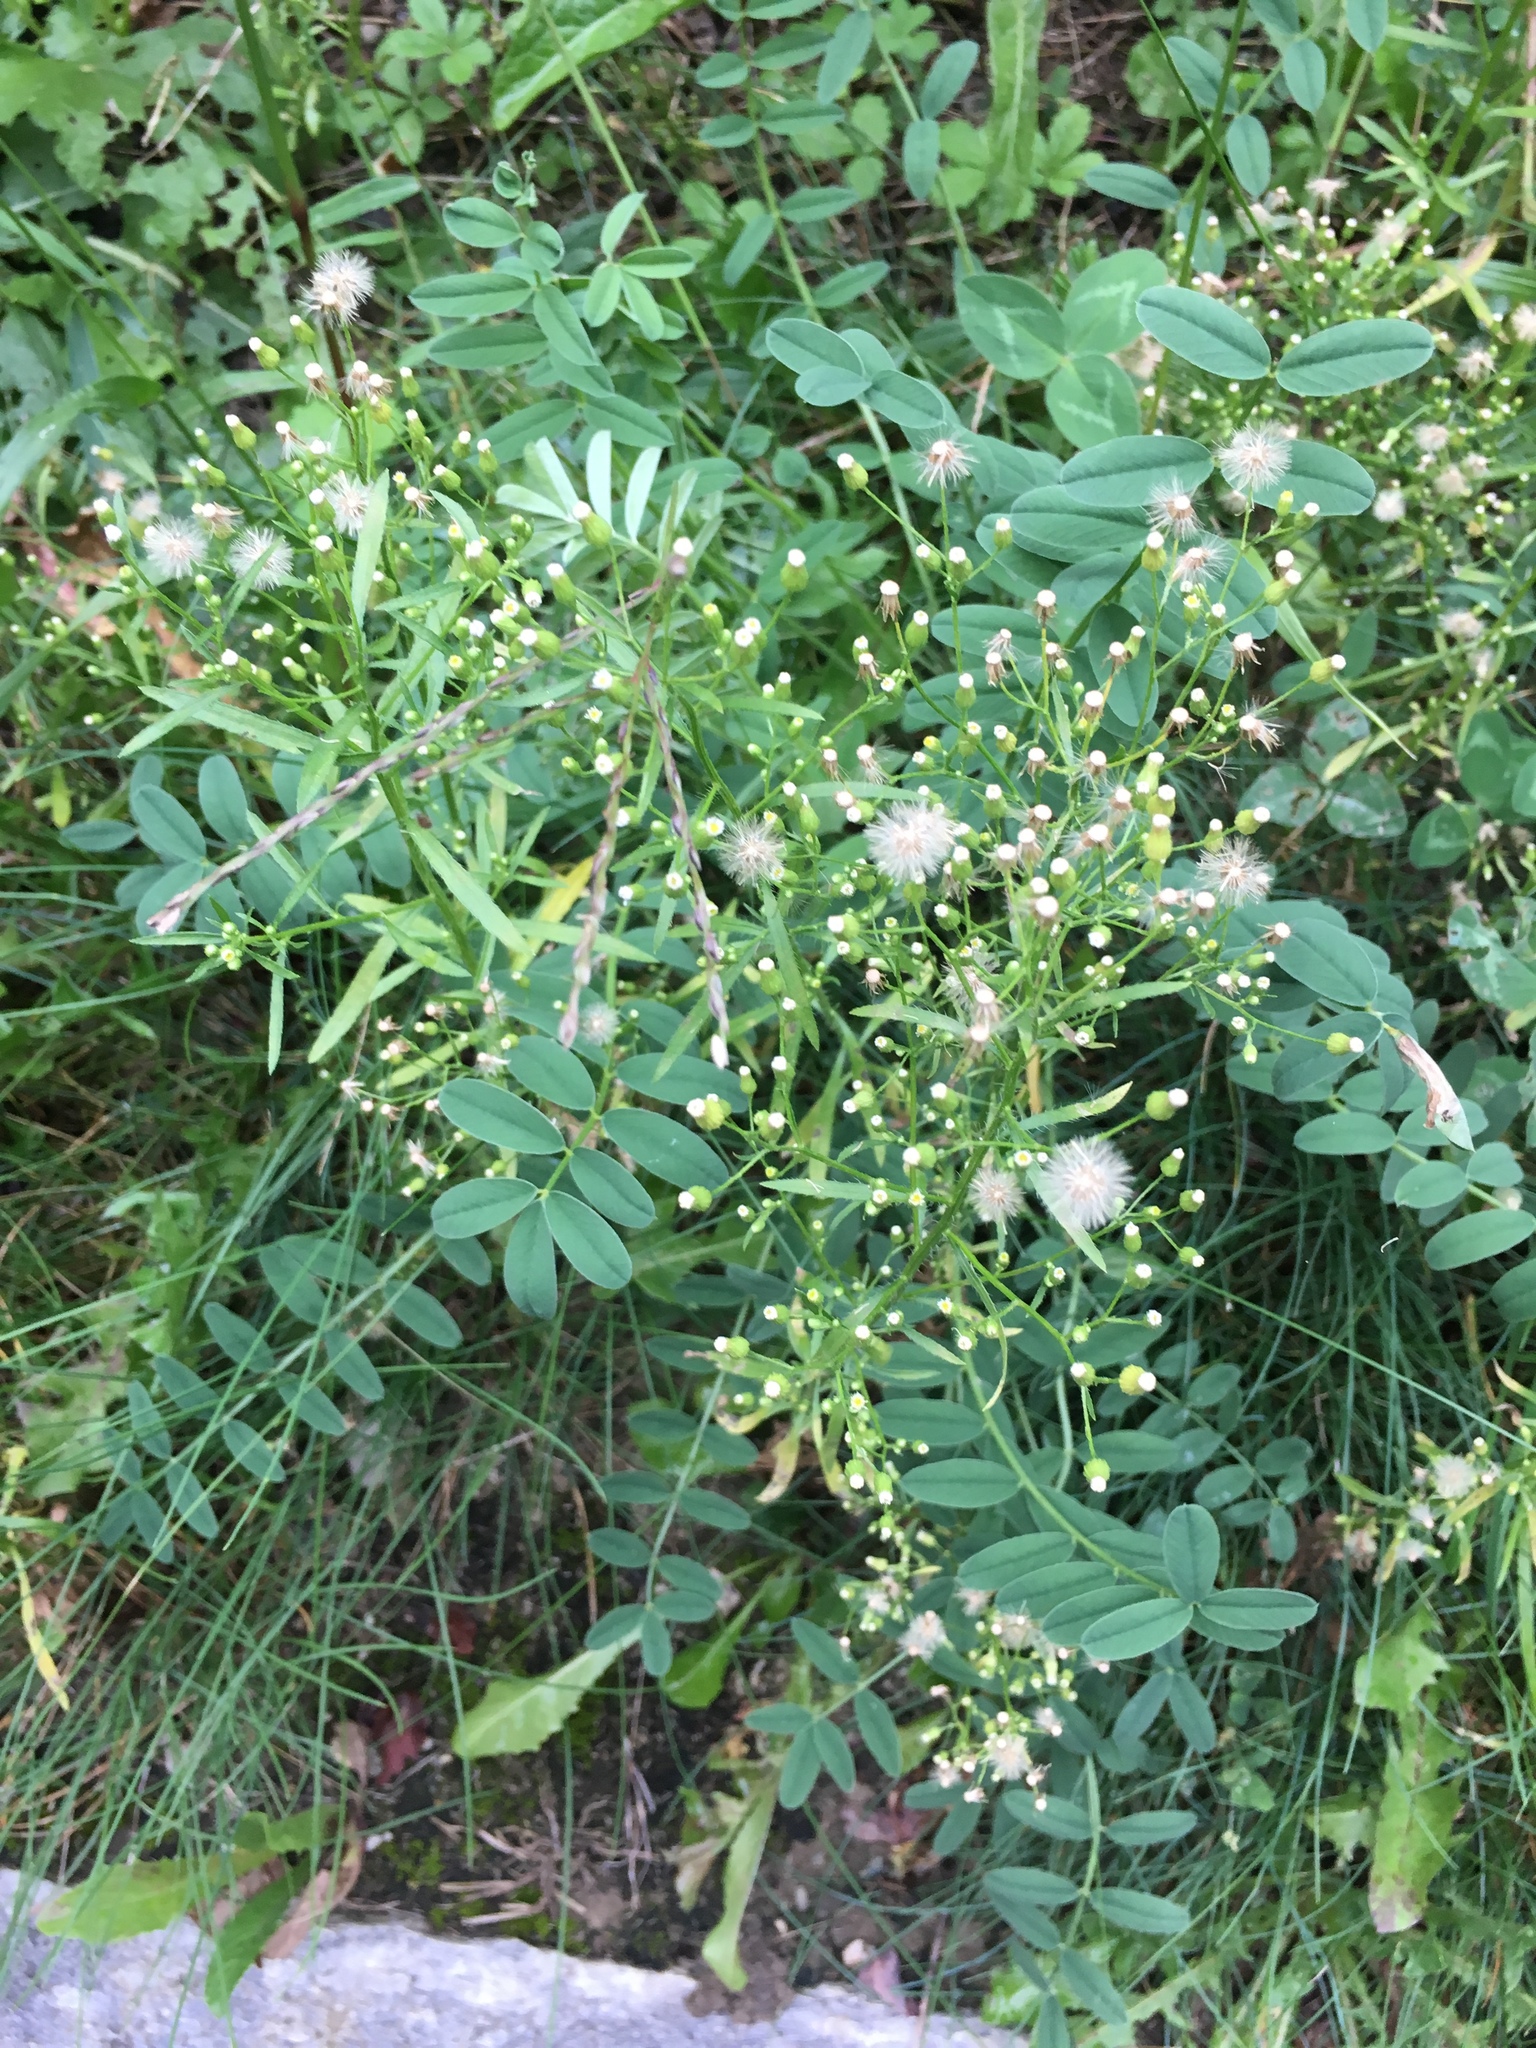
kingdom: Plantae
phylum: Tracheophyta
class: Magnoliopsida
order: Asterales
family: Asteraceae
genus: Erigeron
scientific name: Erigeron canadensis
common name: Canadian fleabane
